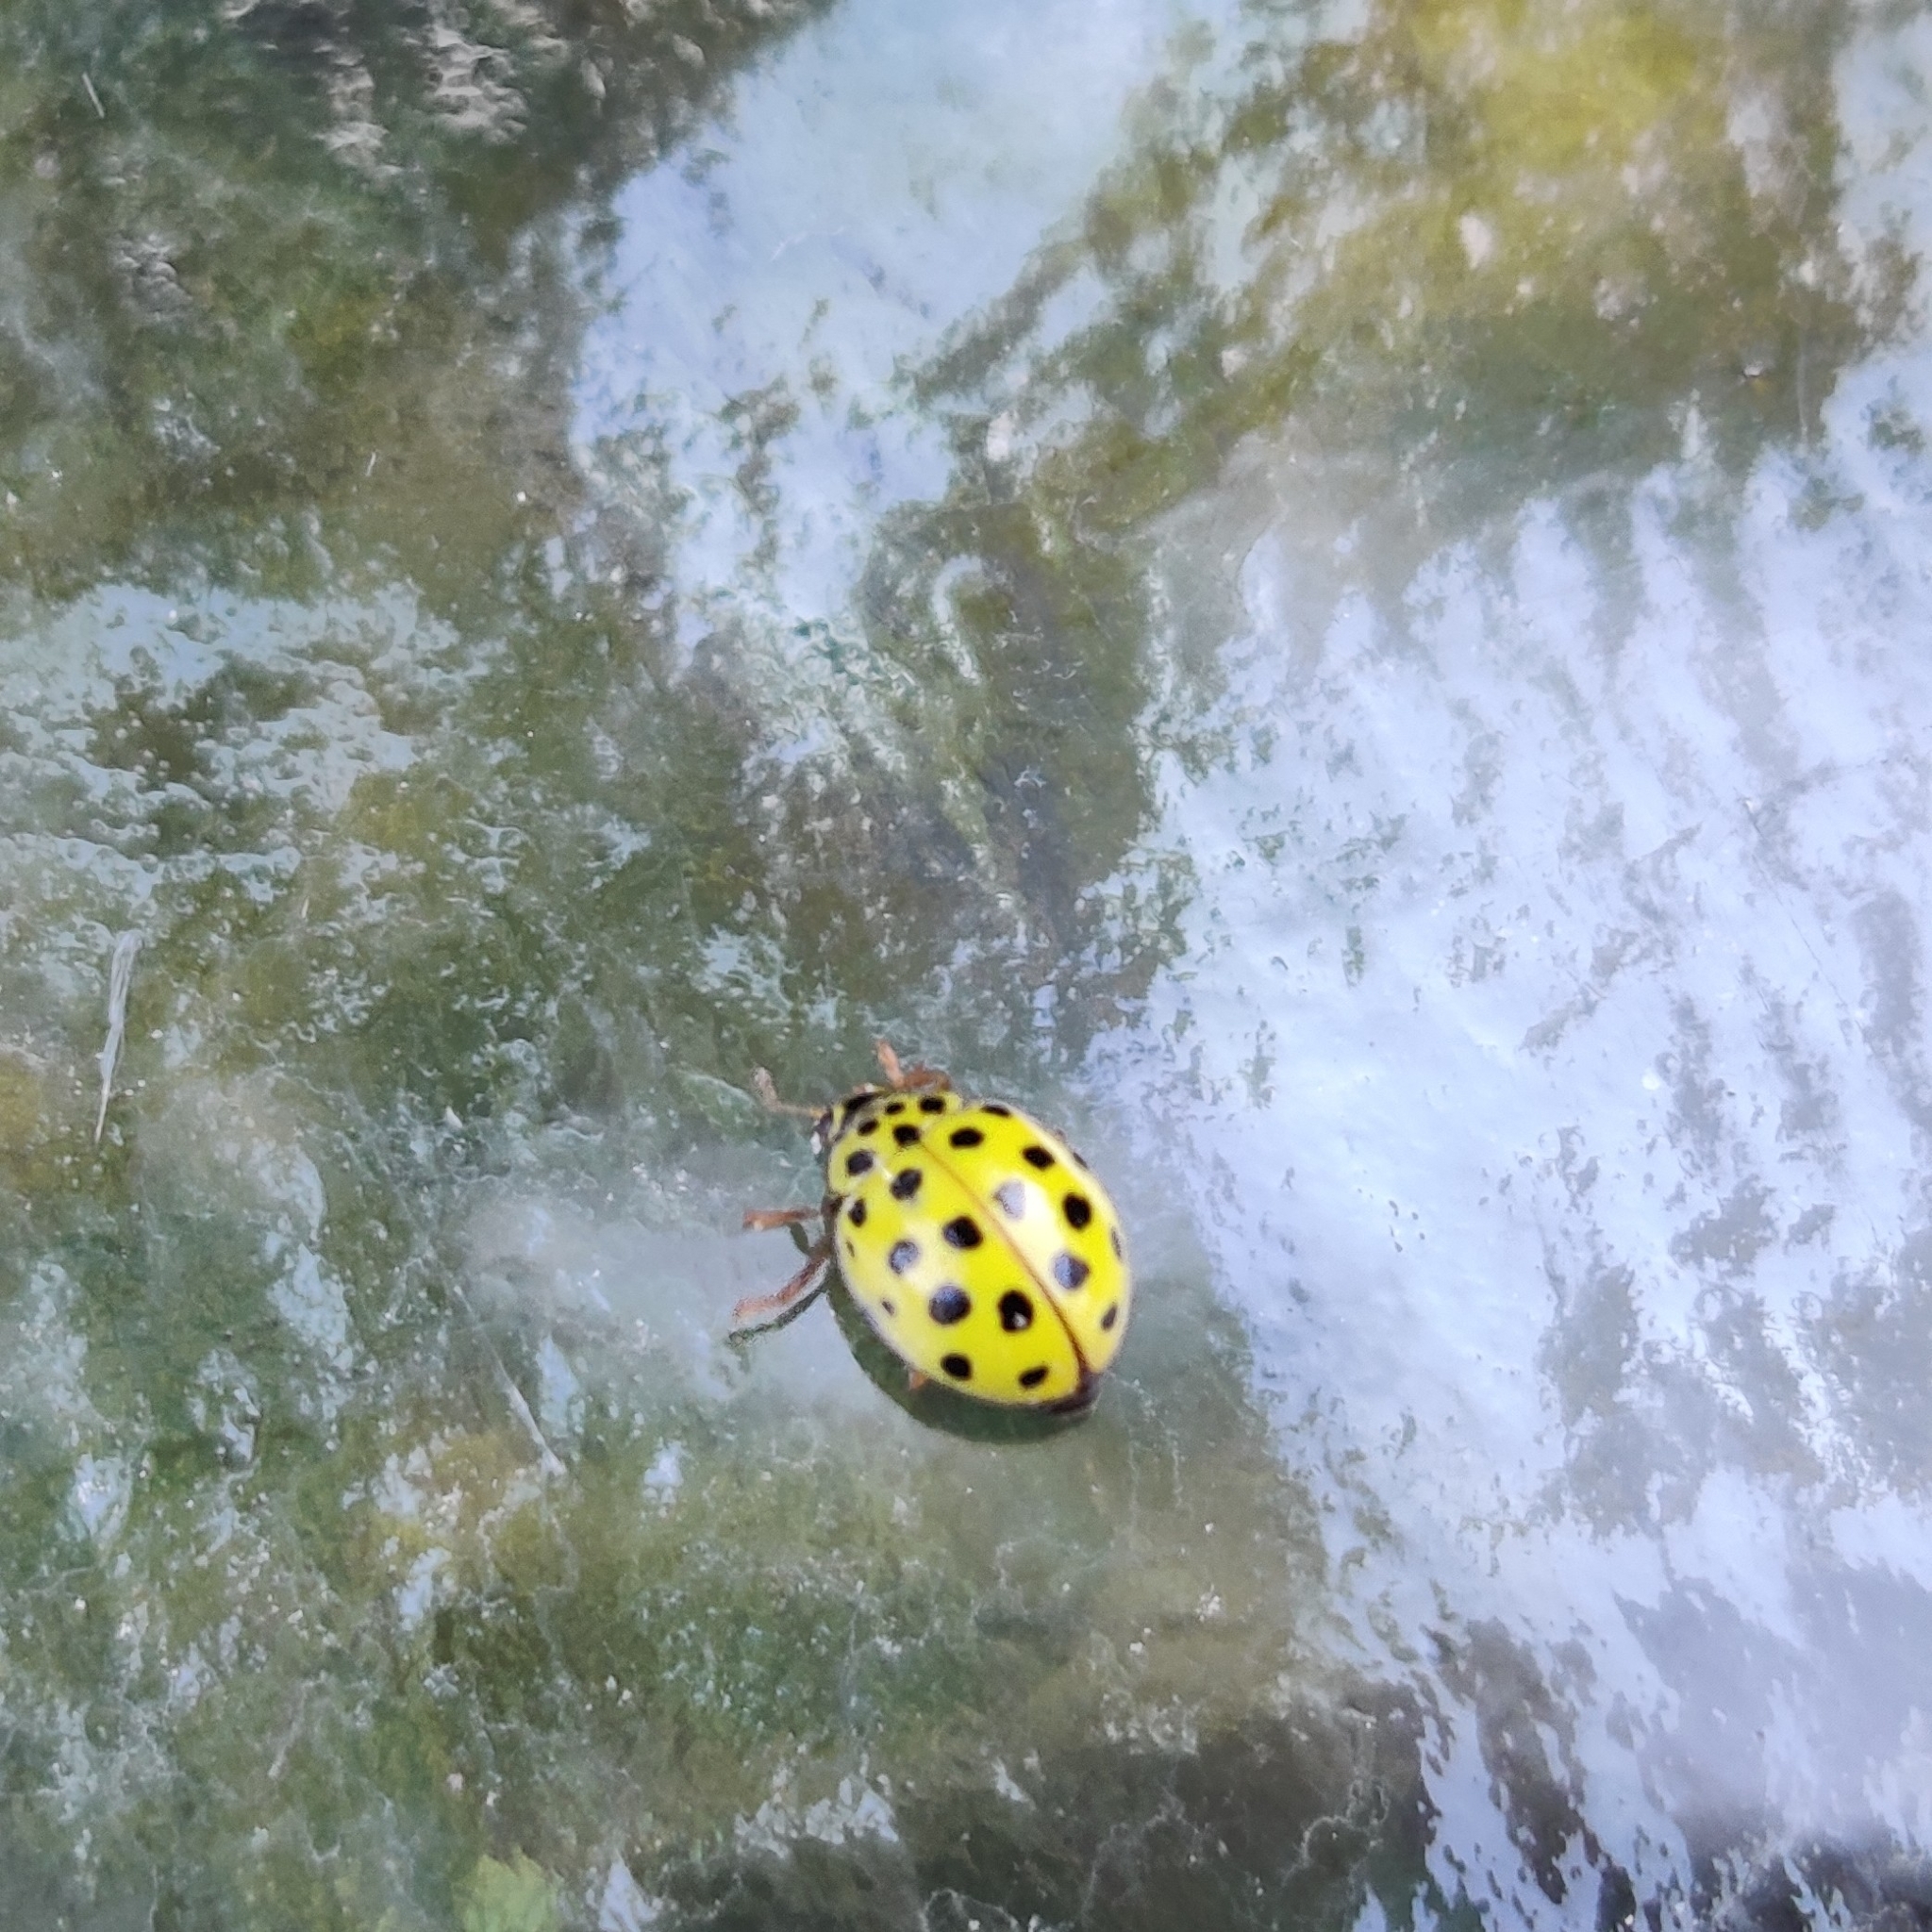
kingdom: Animalia
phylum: Arthropoda
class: Insecta
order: Coleoptera
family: Coccinellidae
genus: Psyllobora
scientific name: Psyllobora vigintiduopunctata
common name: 22-spot ladybird
